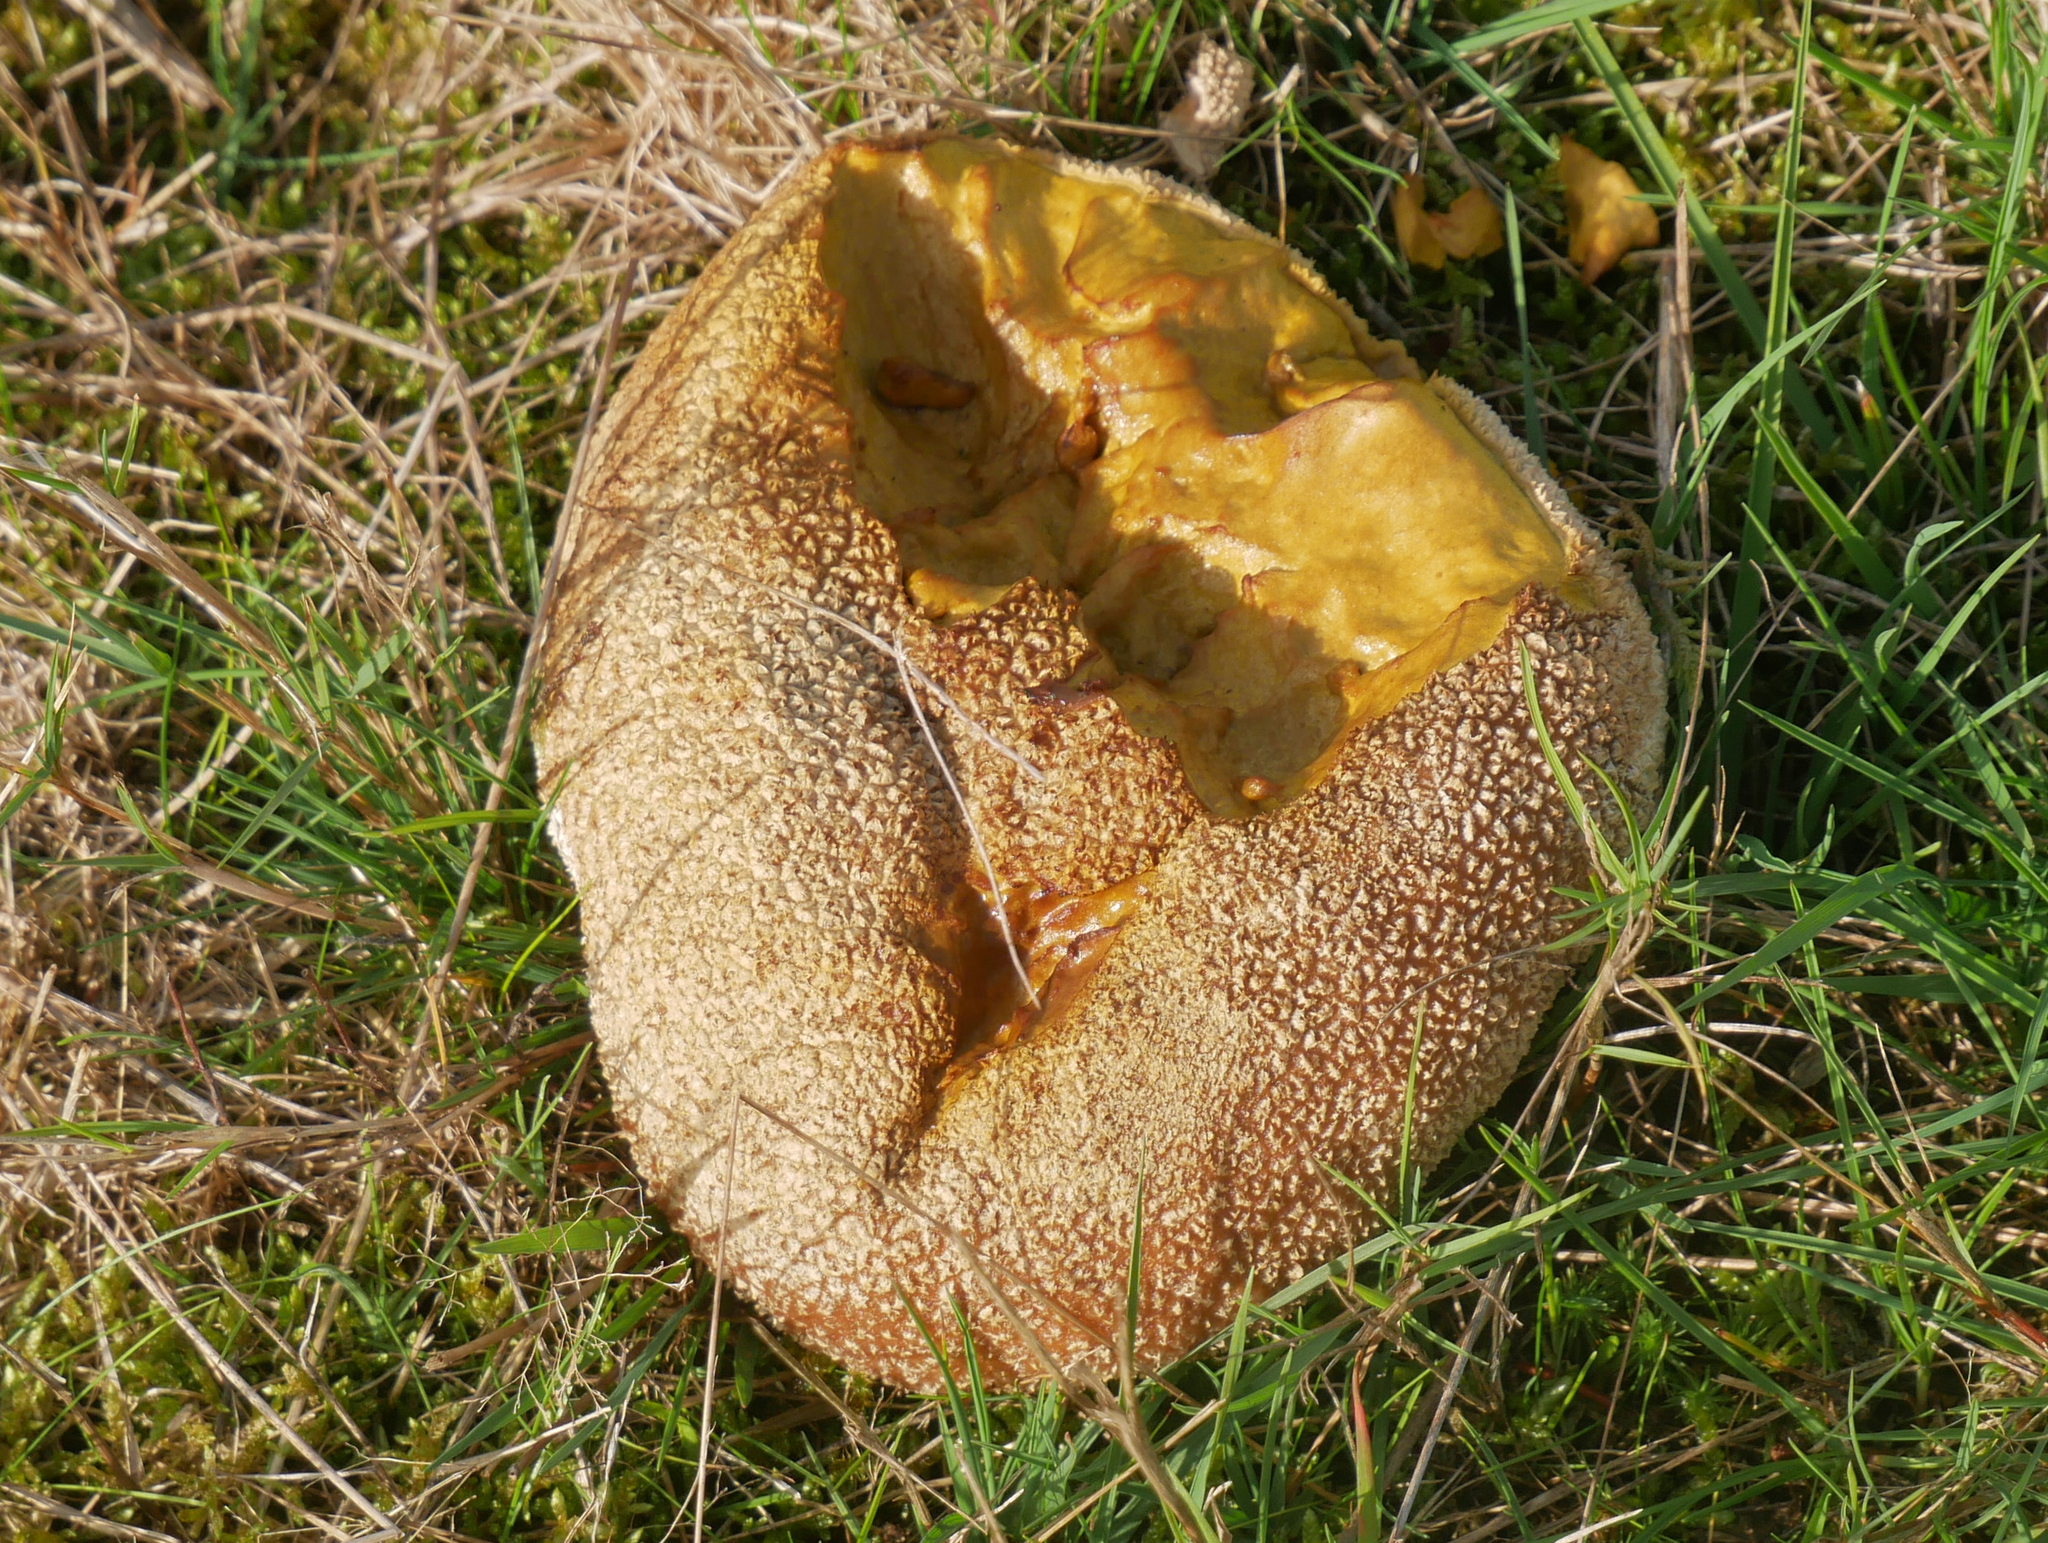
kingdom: Fungi
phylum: Basidiomycota
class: Agaricomycetes
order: Agaricales
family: Lycoperdaceae
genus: Bovistella
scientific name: Bovistella utriformis
